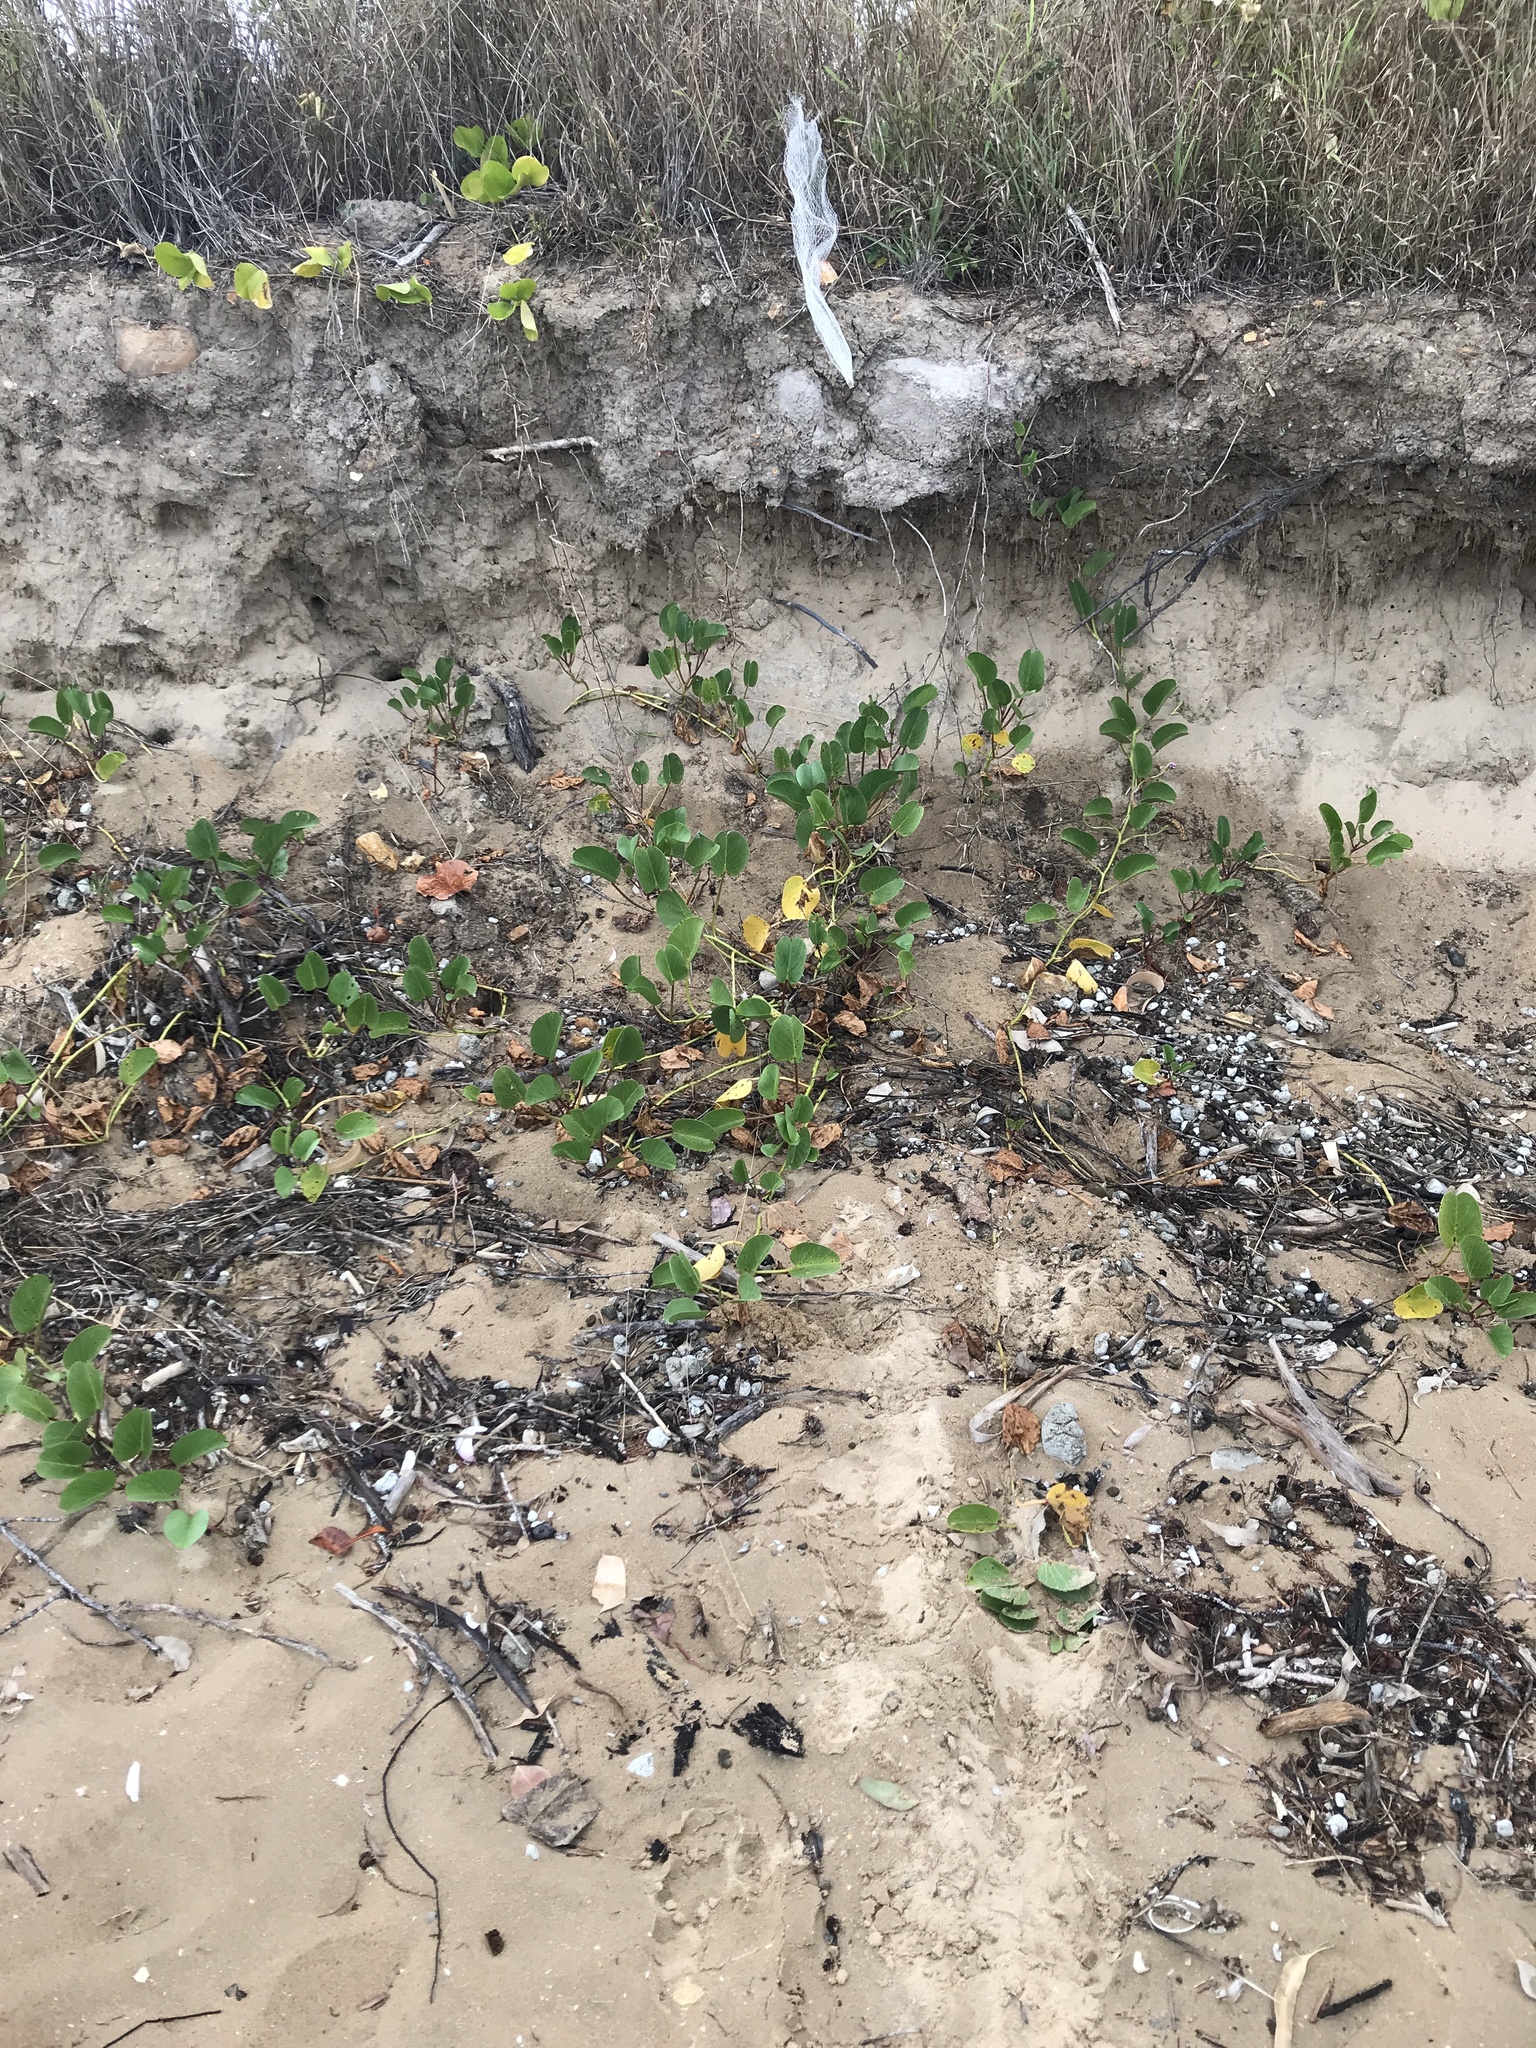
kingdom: Plantae
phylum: Tracheophyta
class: Magnoliopsida
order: Solanales
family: Convolvulaceae
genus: Ipomoea
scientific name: Ipomoea pes-caprae
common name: Beach morning glory
